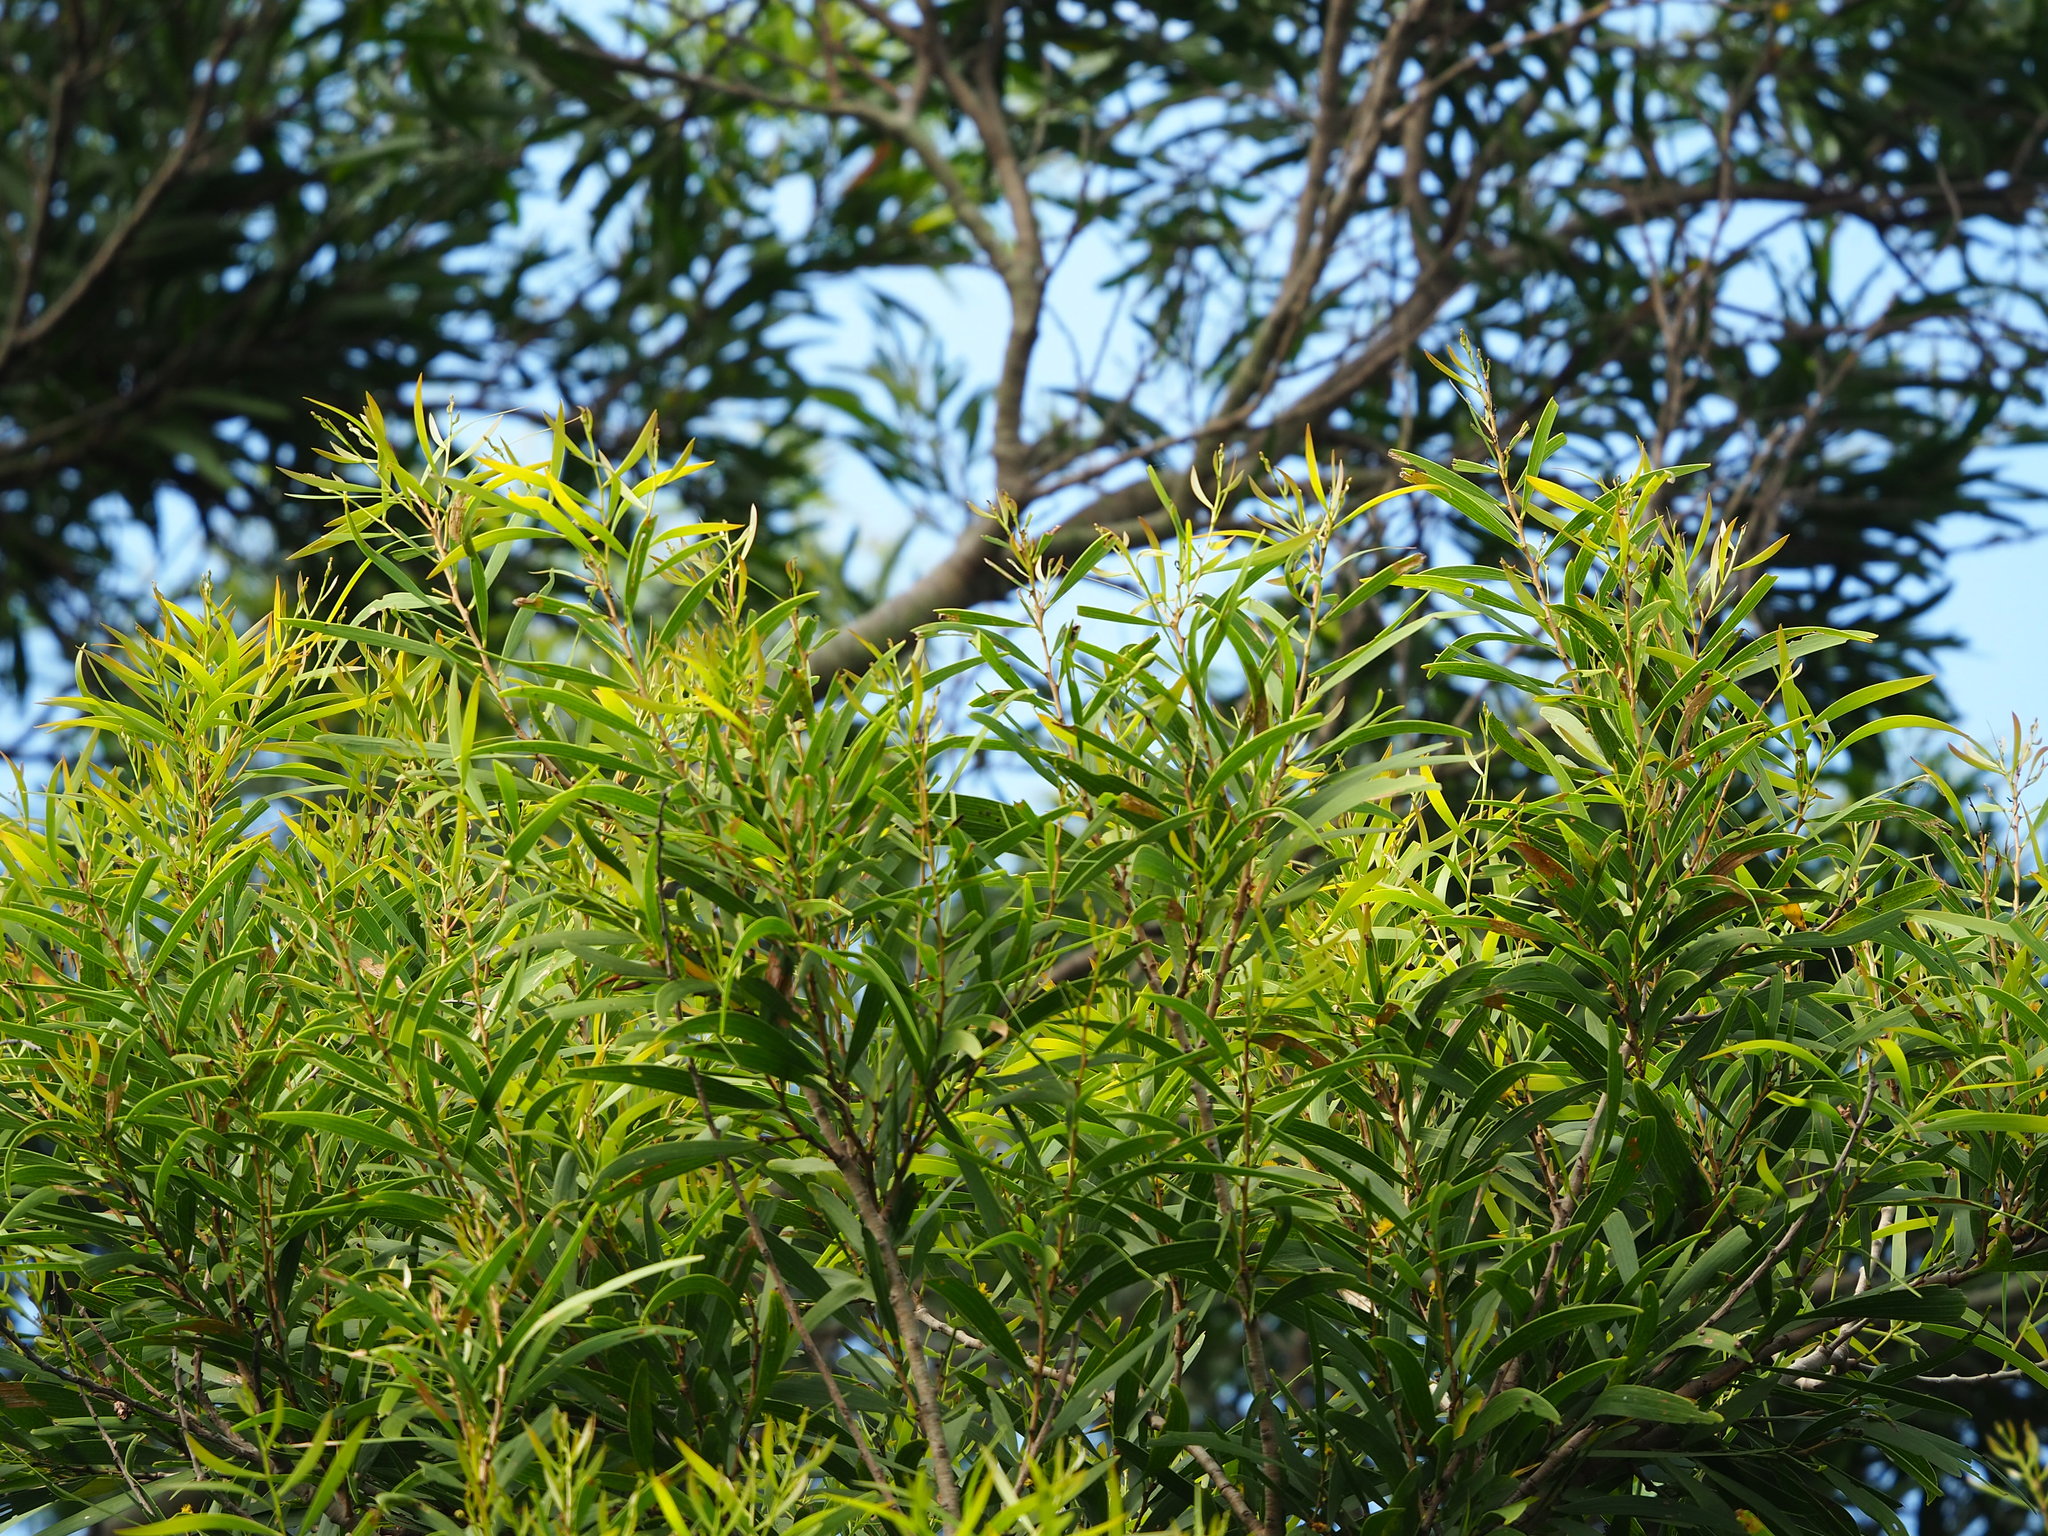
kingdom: Plantae
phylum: Tracheophyta
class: Magnoliopsida
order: Fabales
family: Fabaceae
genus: Acacia
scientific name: Acacia confusa
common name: Formosan koa
